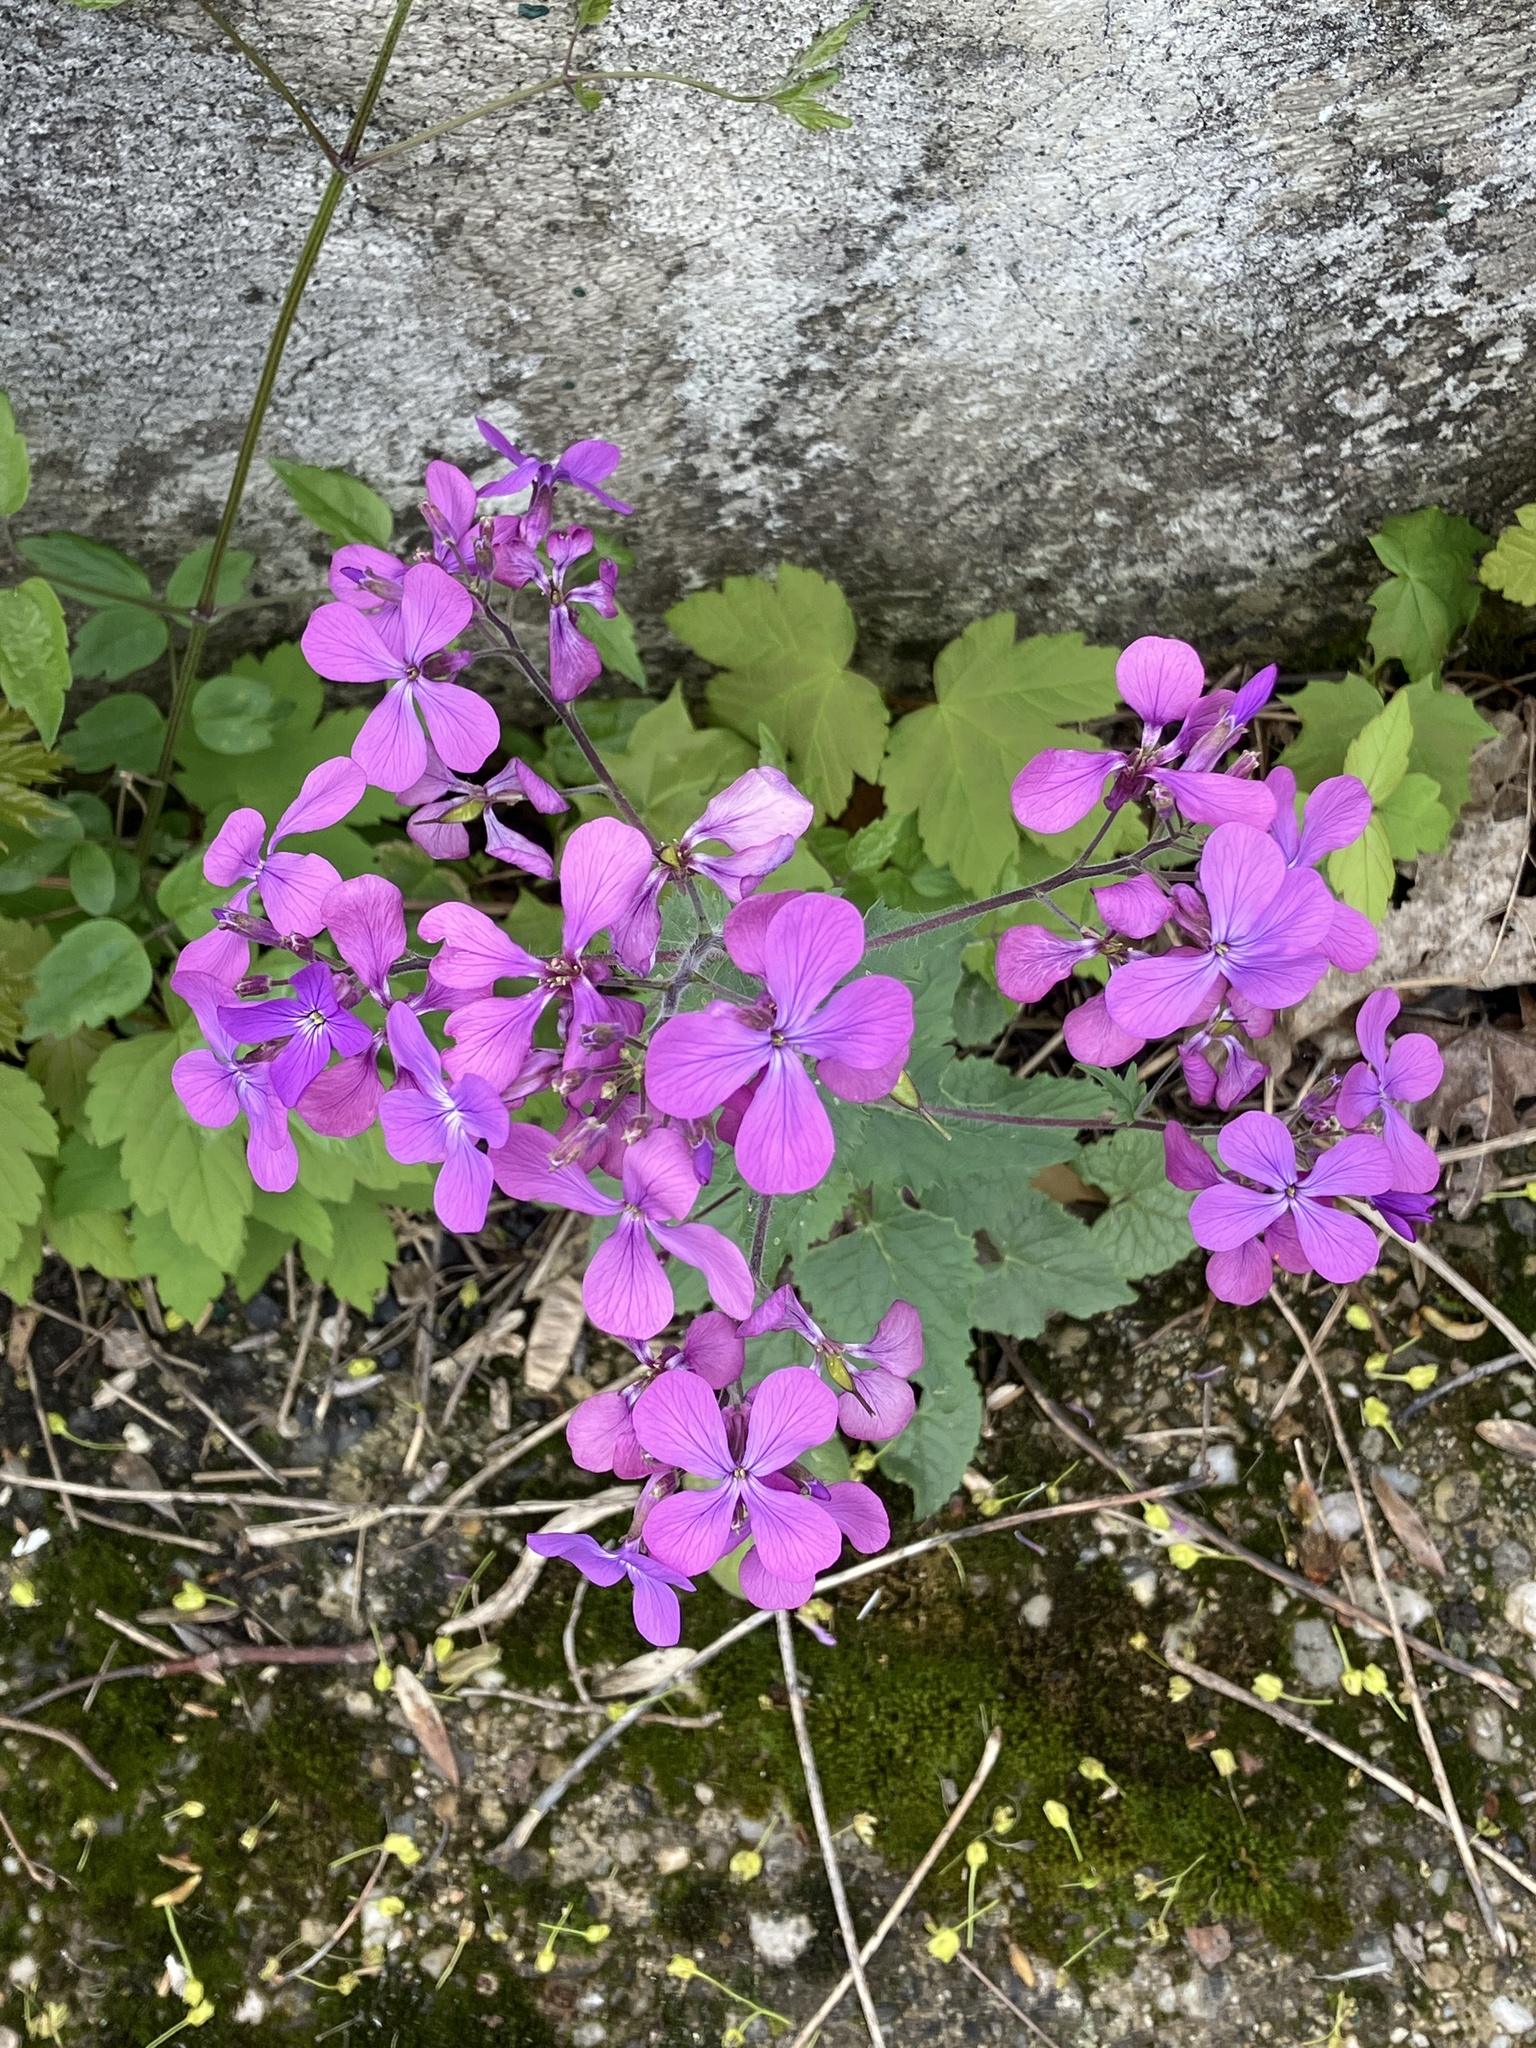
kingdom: Plantae
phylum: Tracheophyta
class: Magnoliopsida
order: Brassicales
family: Brassicaceae
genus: Lunaria
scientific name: Lunaria annua
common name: Honesty
